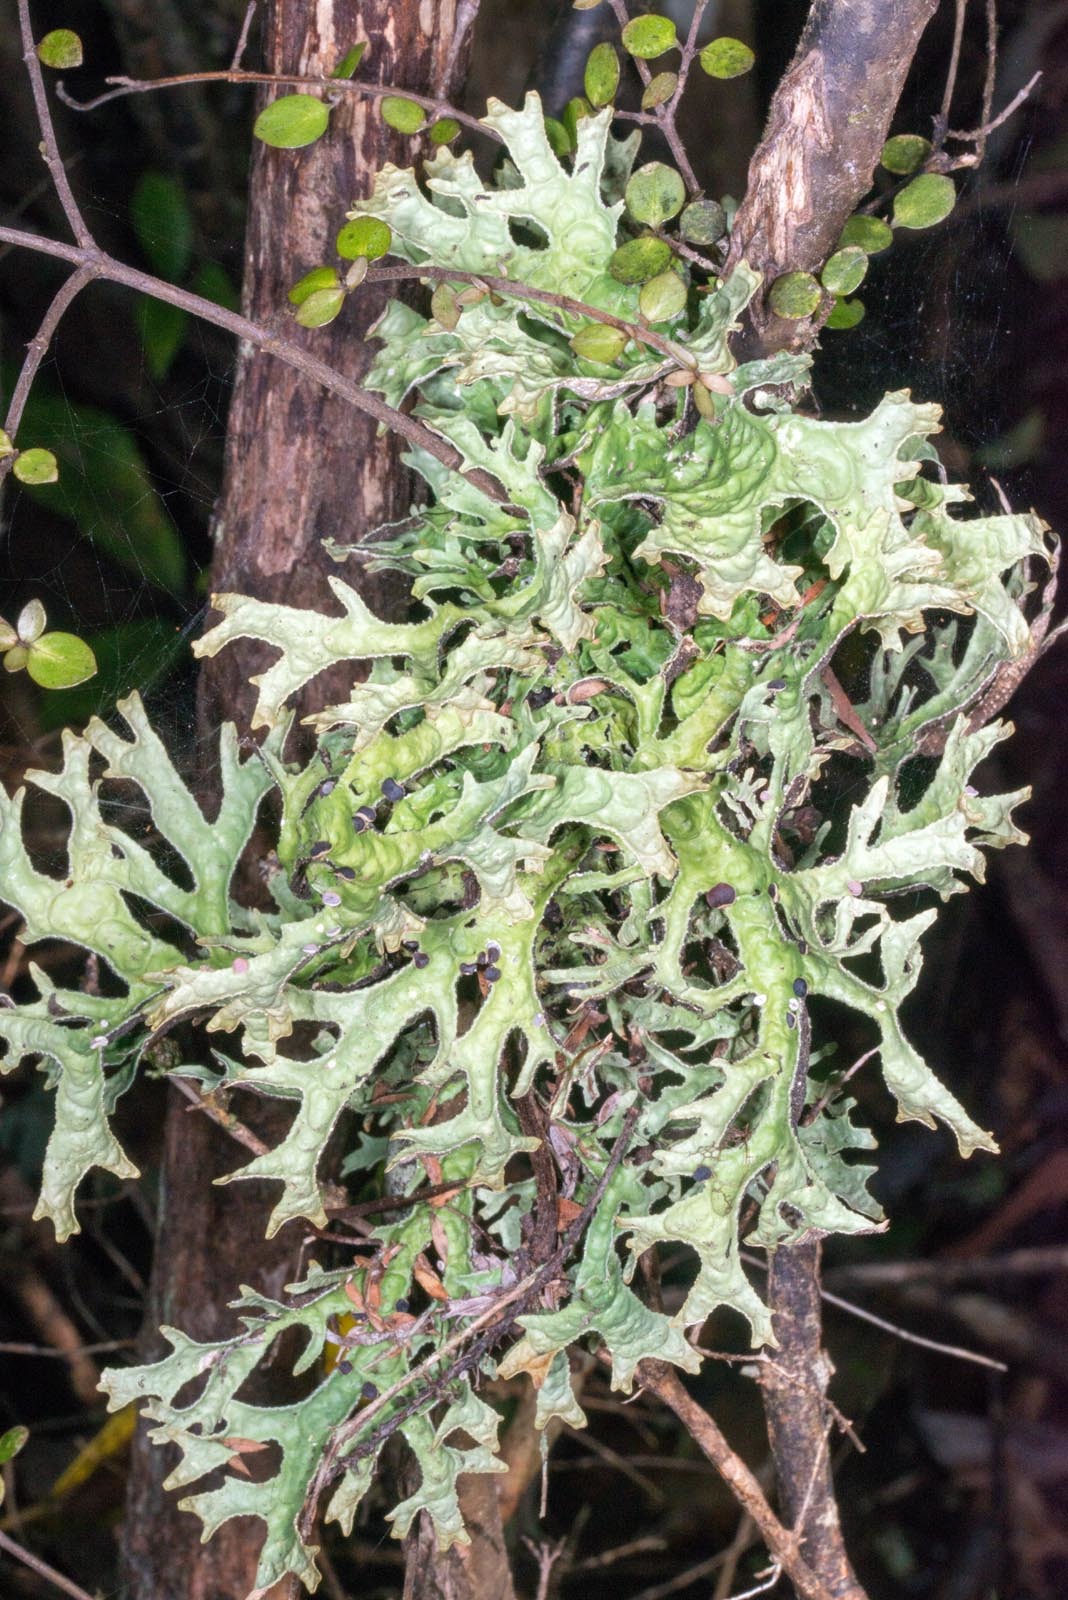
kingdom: Fungi
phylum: Ascomycota
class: Lecanoromycetes
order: Peltigerales
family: Lobariaceae
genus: Pseudocyphellaria
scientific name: Pseudocyphellaria billardierei
